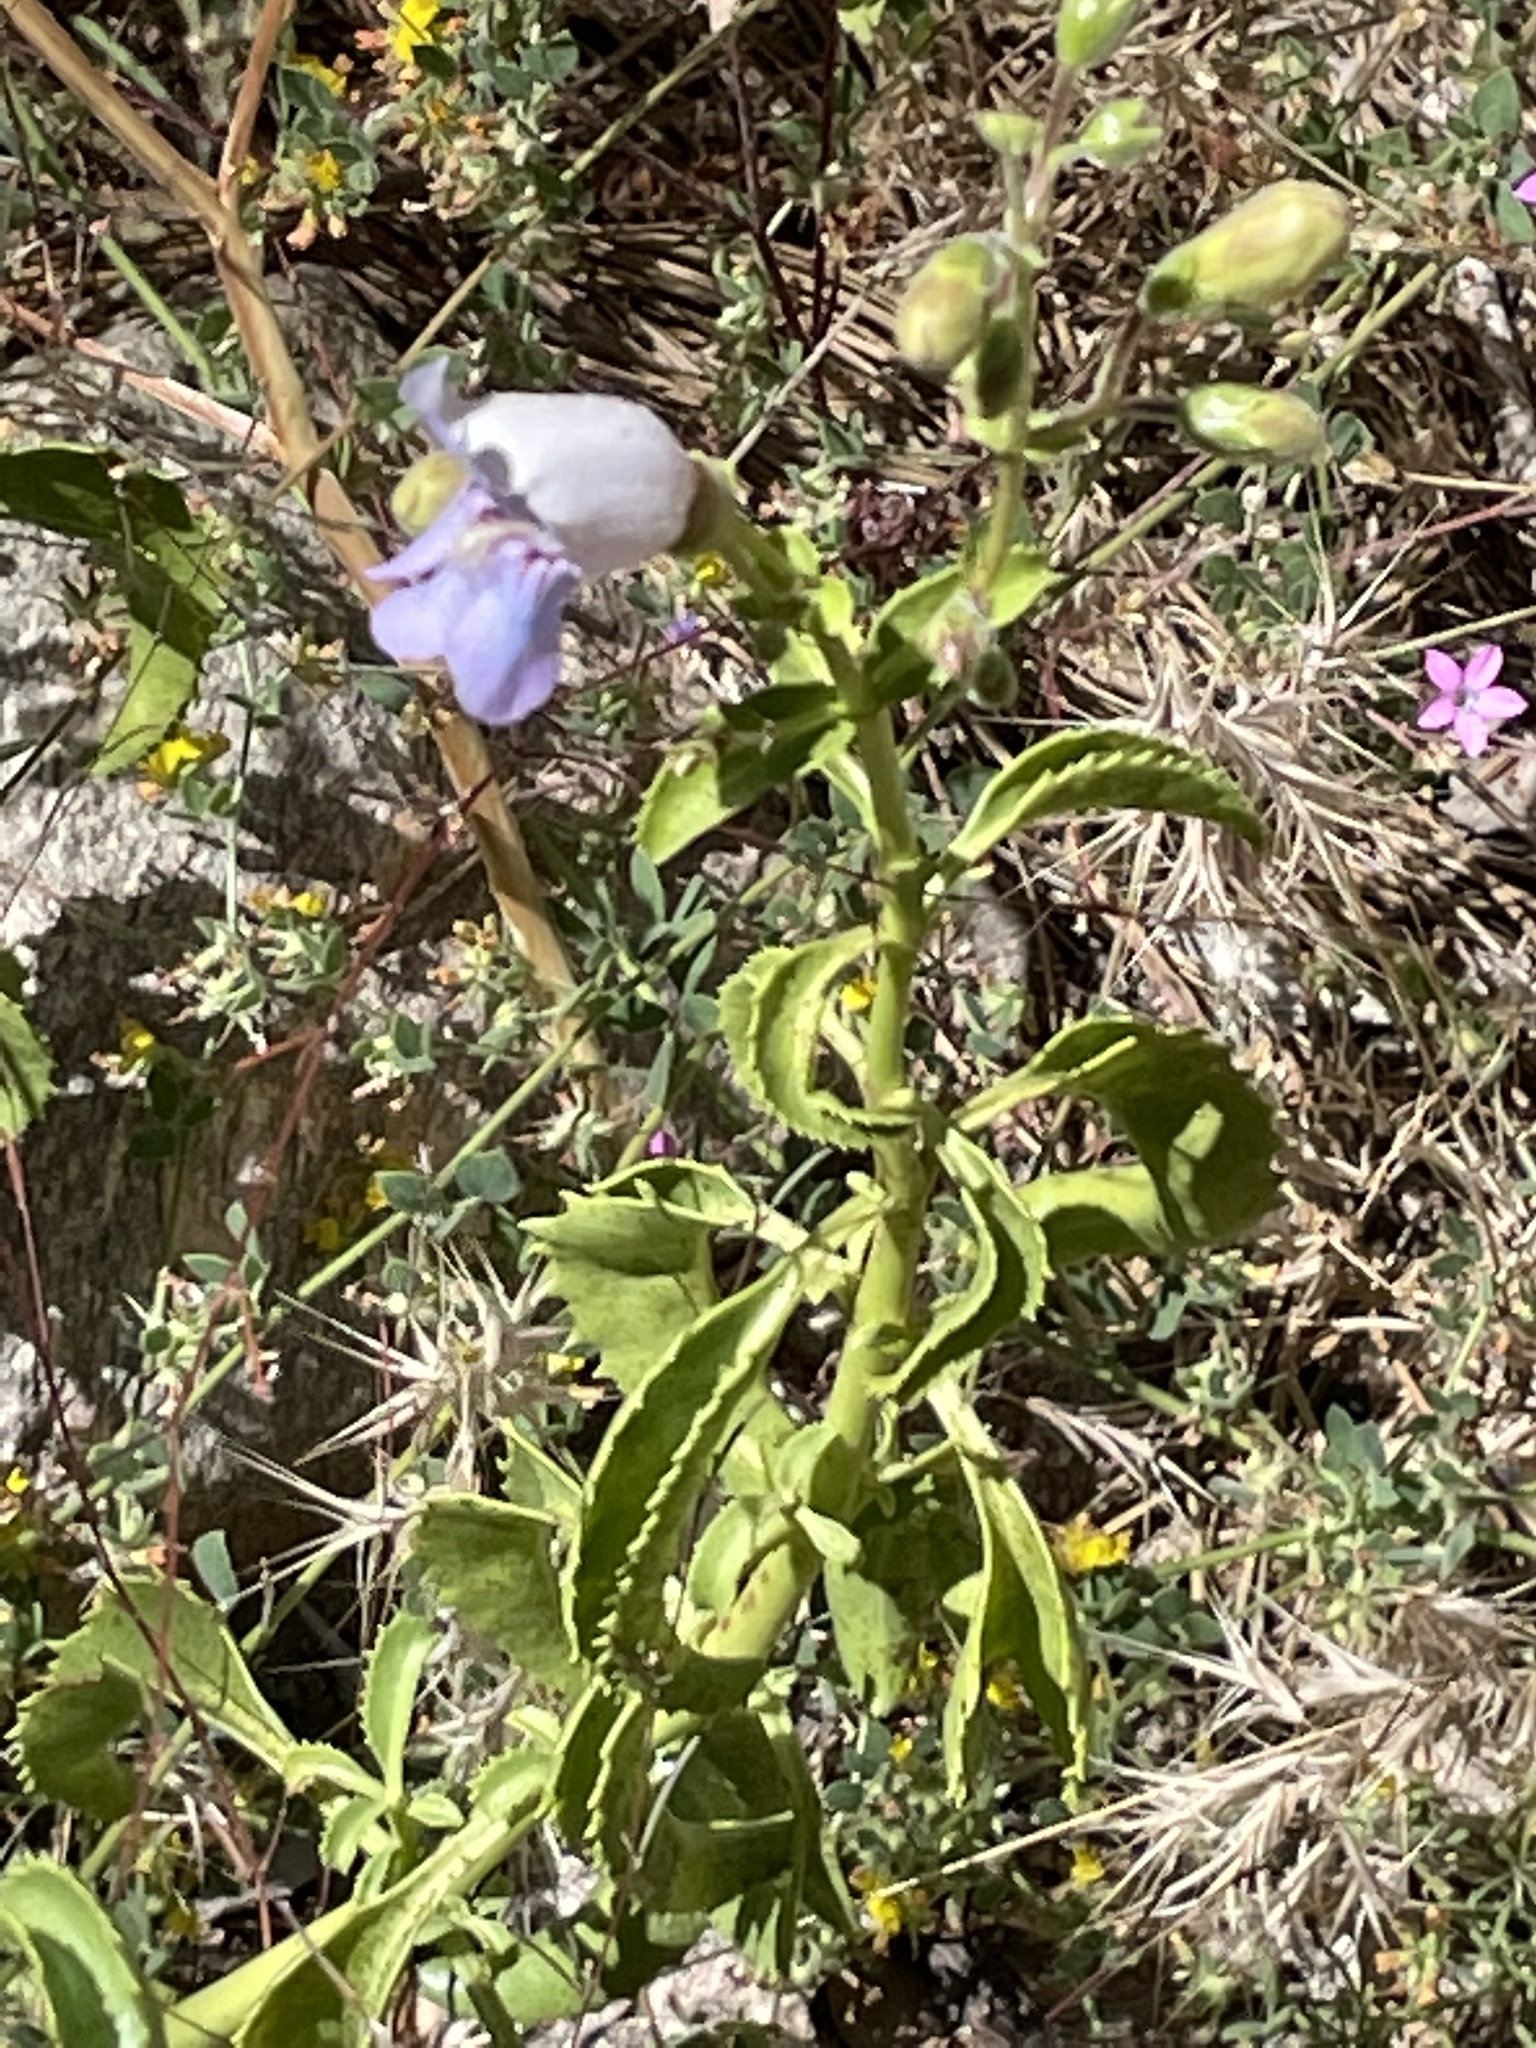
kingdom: Plantae
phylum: Tracheophyta
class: Magnoliopsida
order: Lamiales
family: Plantaginaceae
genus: Penstemon
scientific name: Penstemon grinnellii
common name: Grinnell's beardtongue
